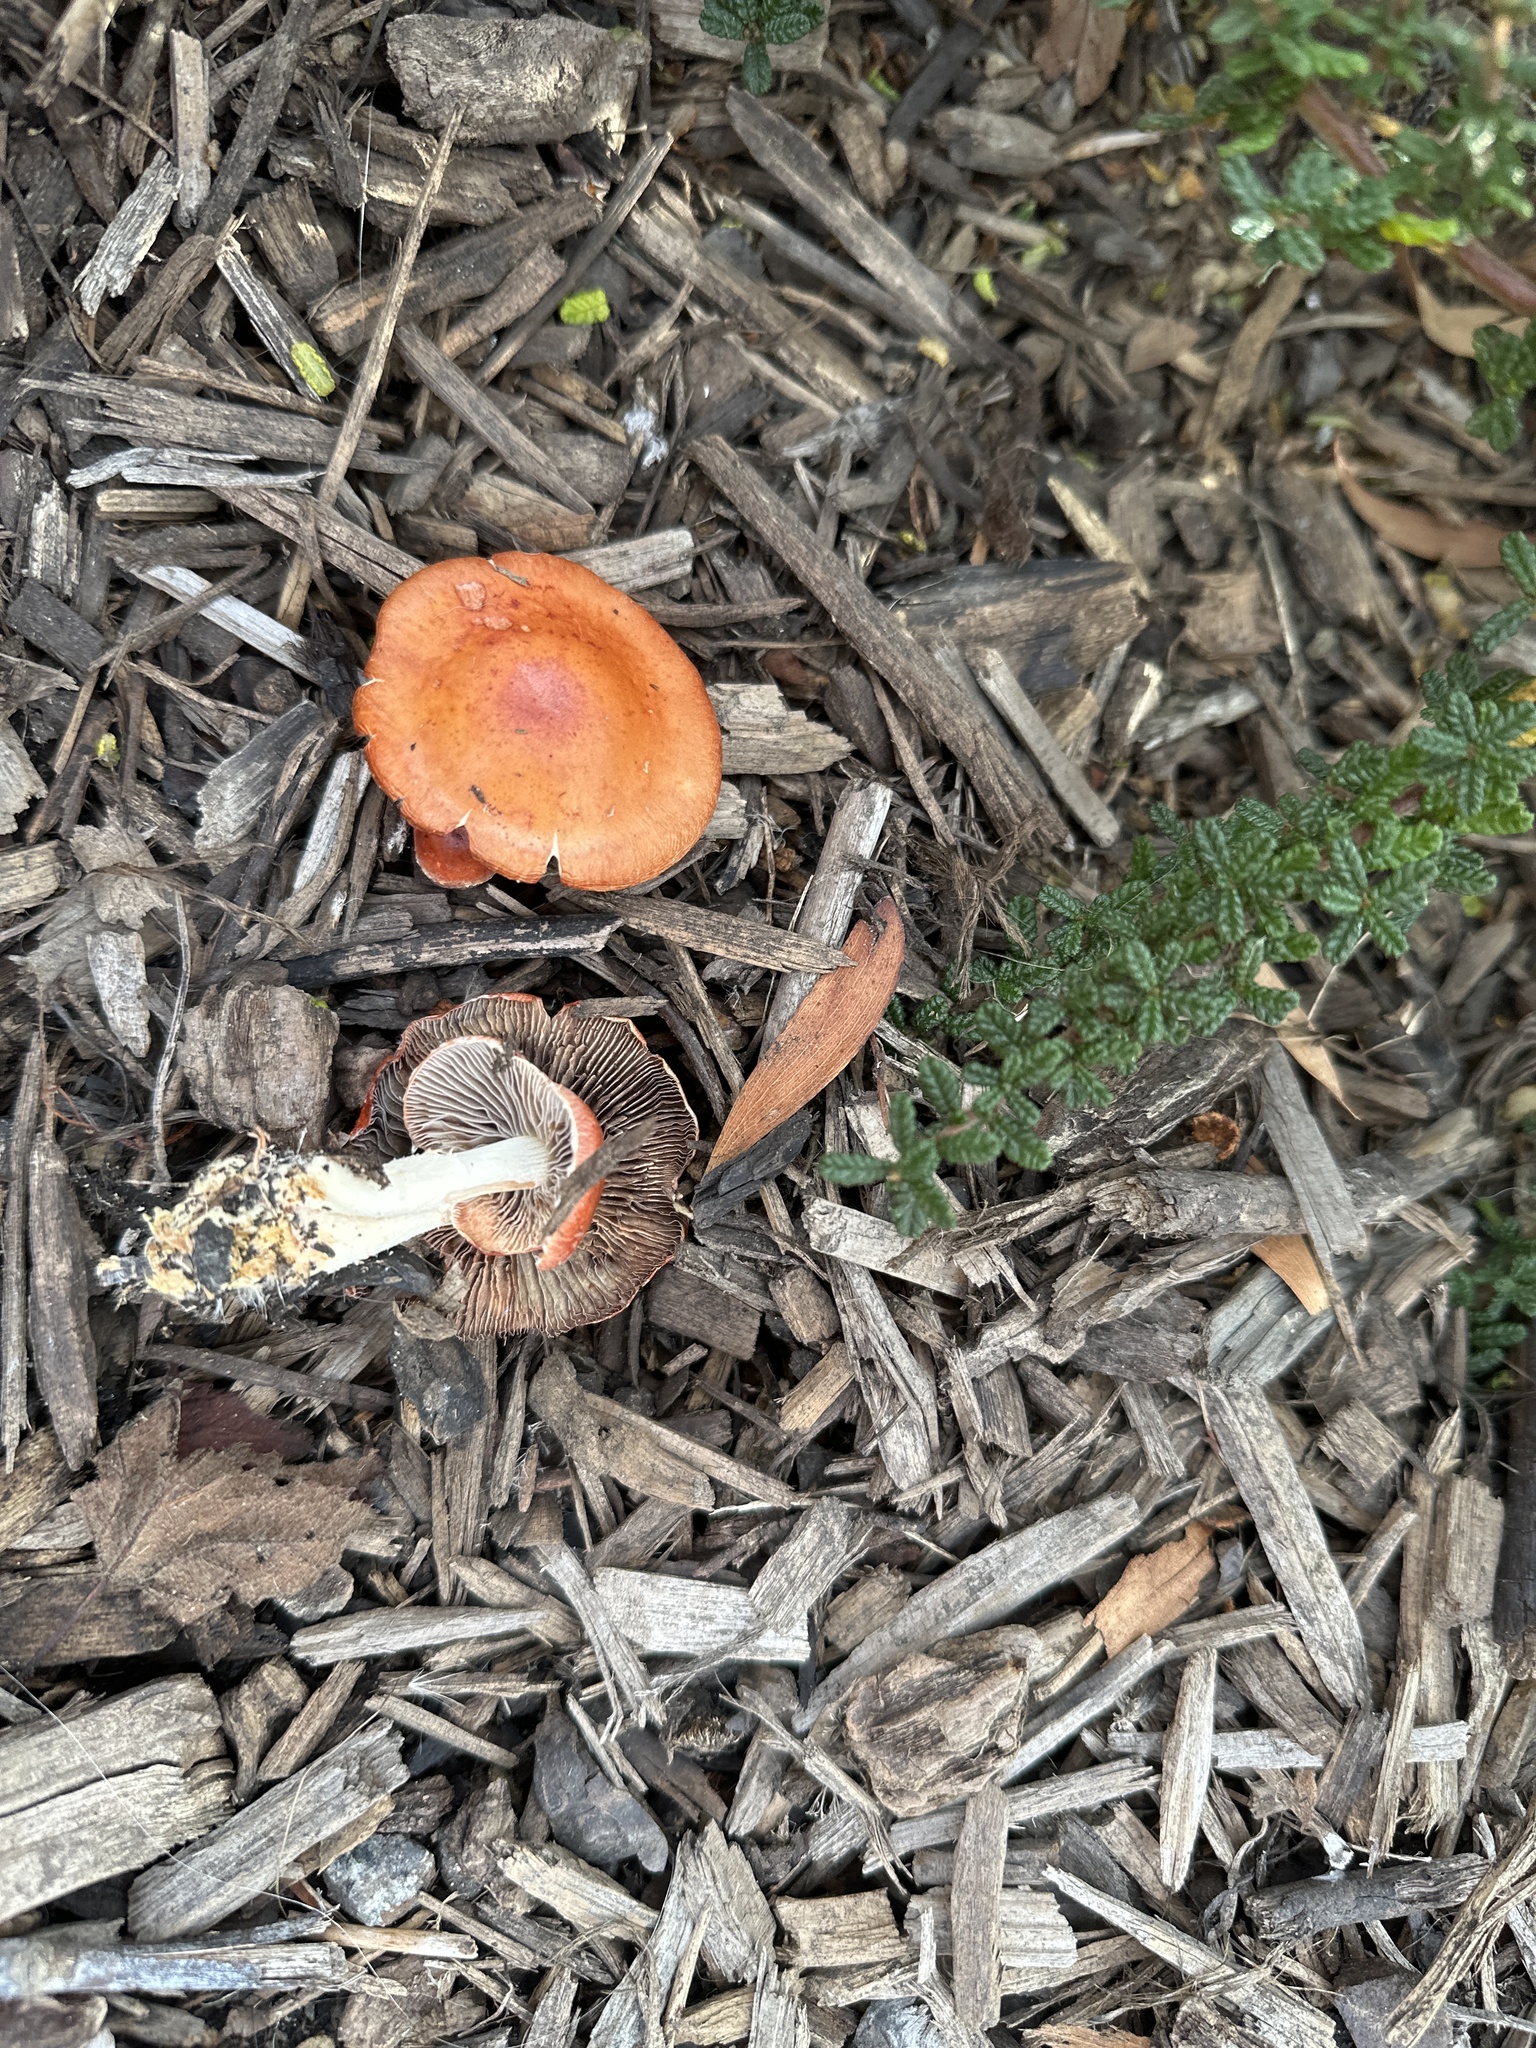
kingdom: Fungi
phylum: Basidiomycota
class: Agaricomycetes
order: Agaricales
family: Strophariaceae
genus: Leratiomyces
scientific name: Leratiomyces ceres
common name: Redlead roundhead
